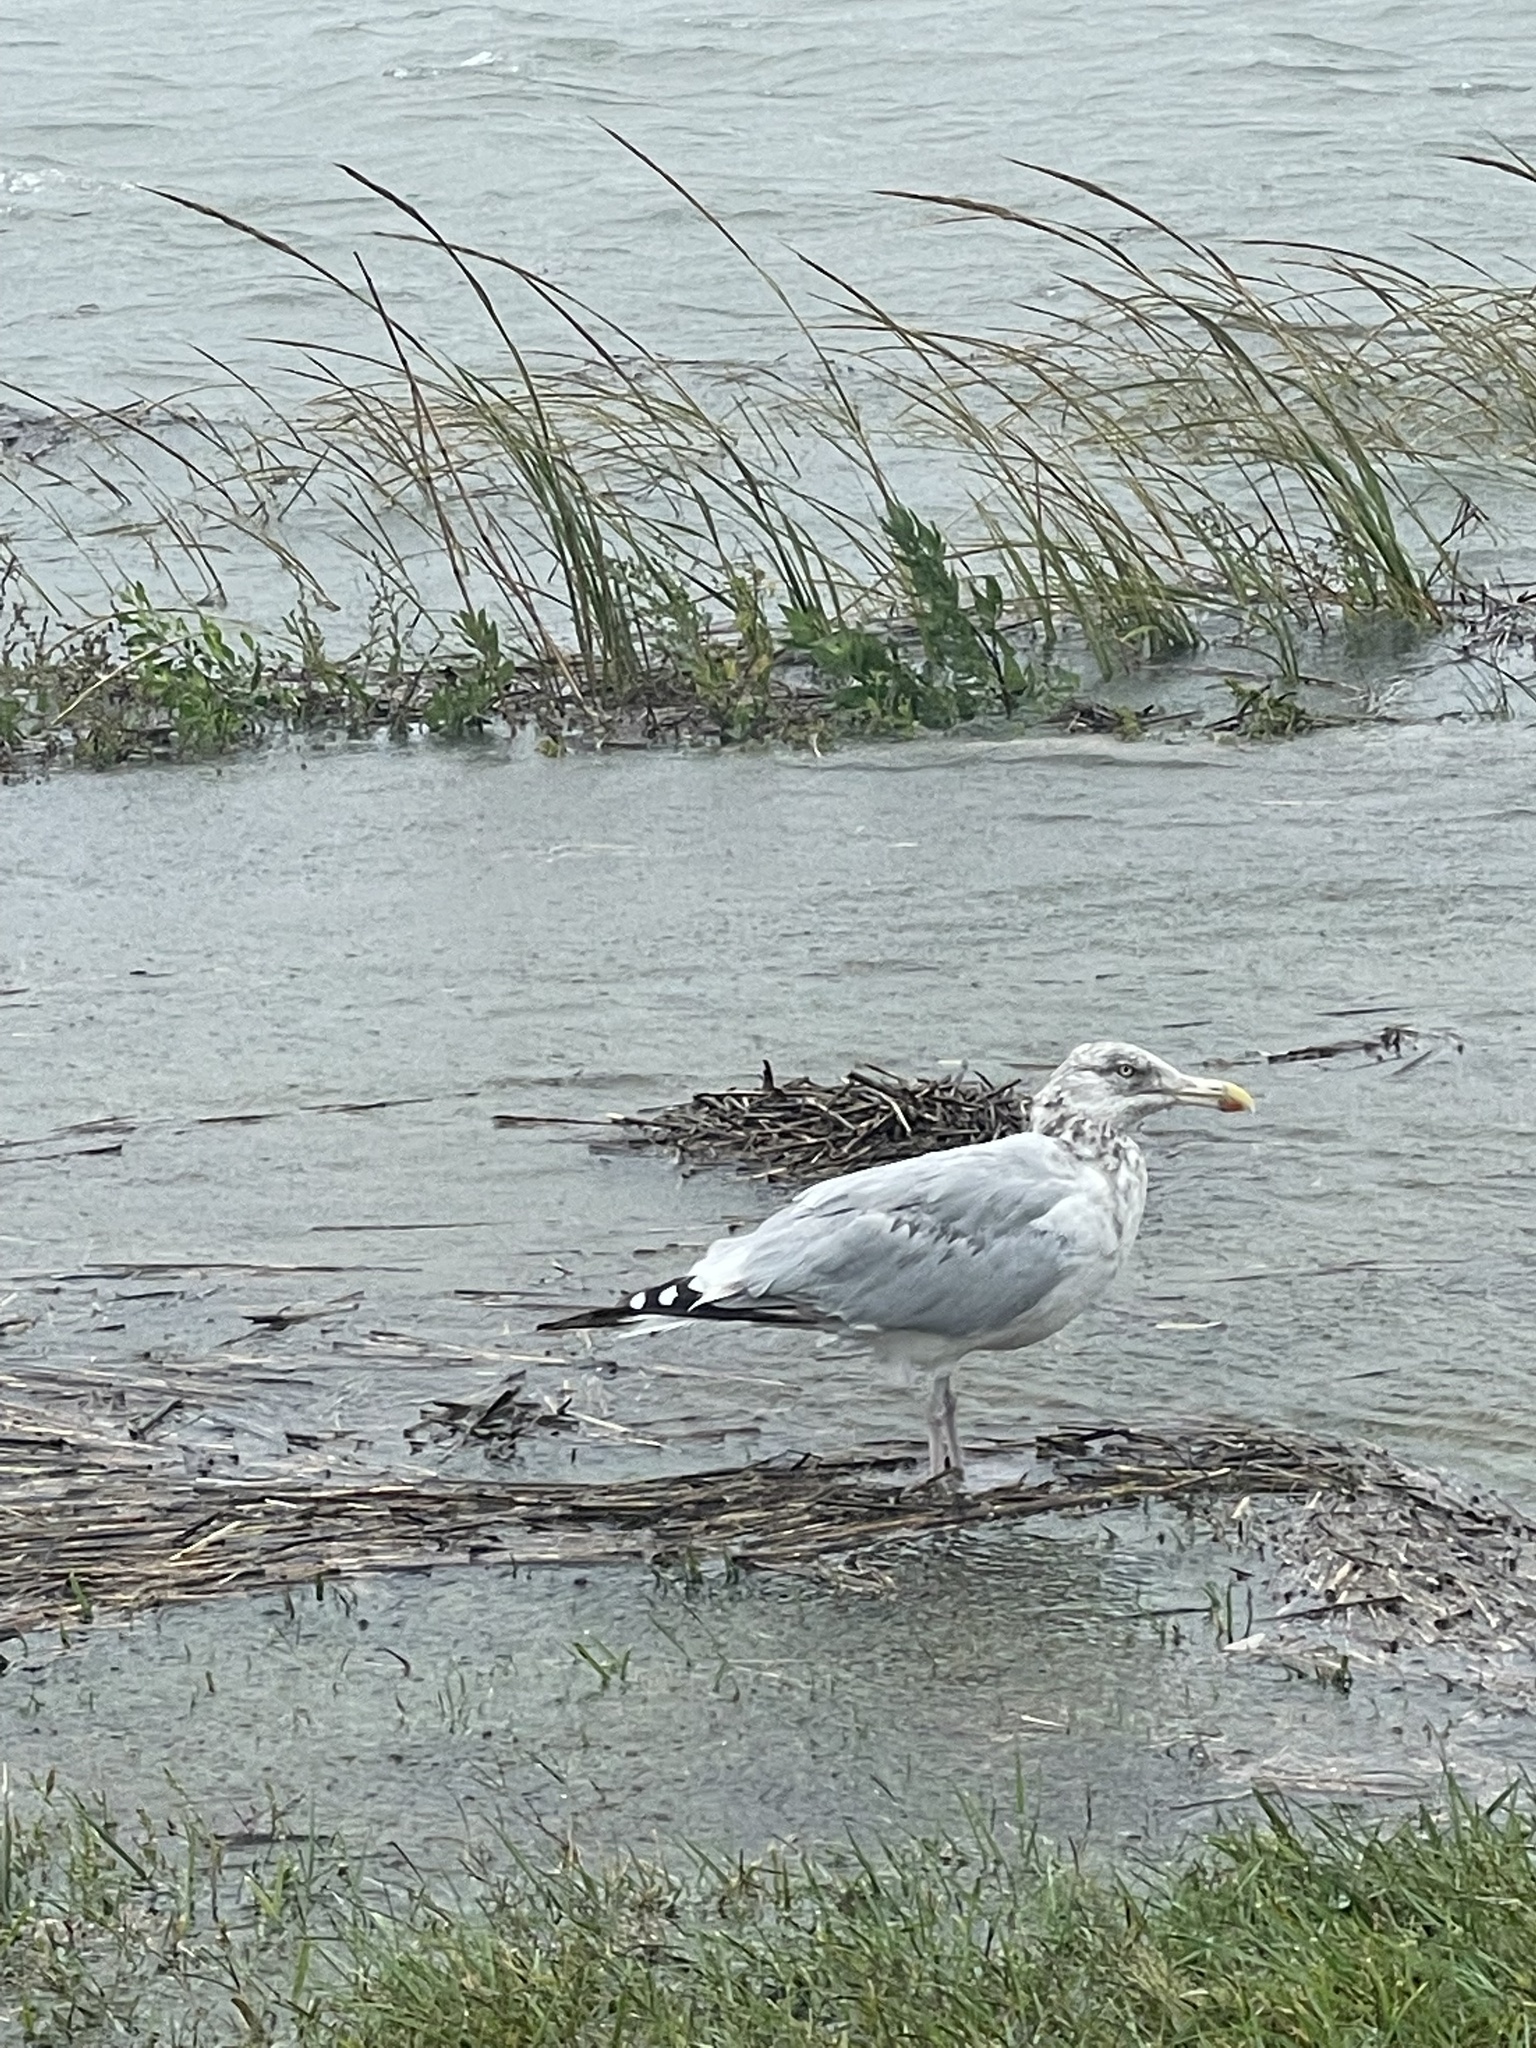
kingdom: Animalia
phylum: Chordata
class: Aves
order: Charadriiformes
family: Laridae
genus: Larus
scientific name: Larus argentatus
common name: Herring gull
